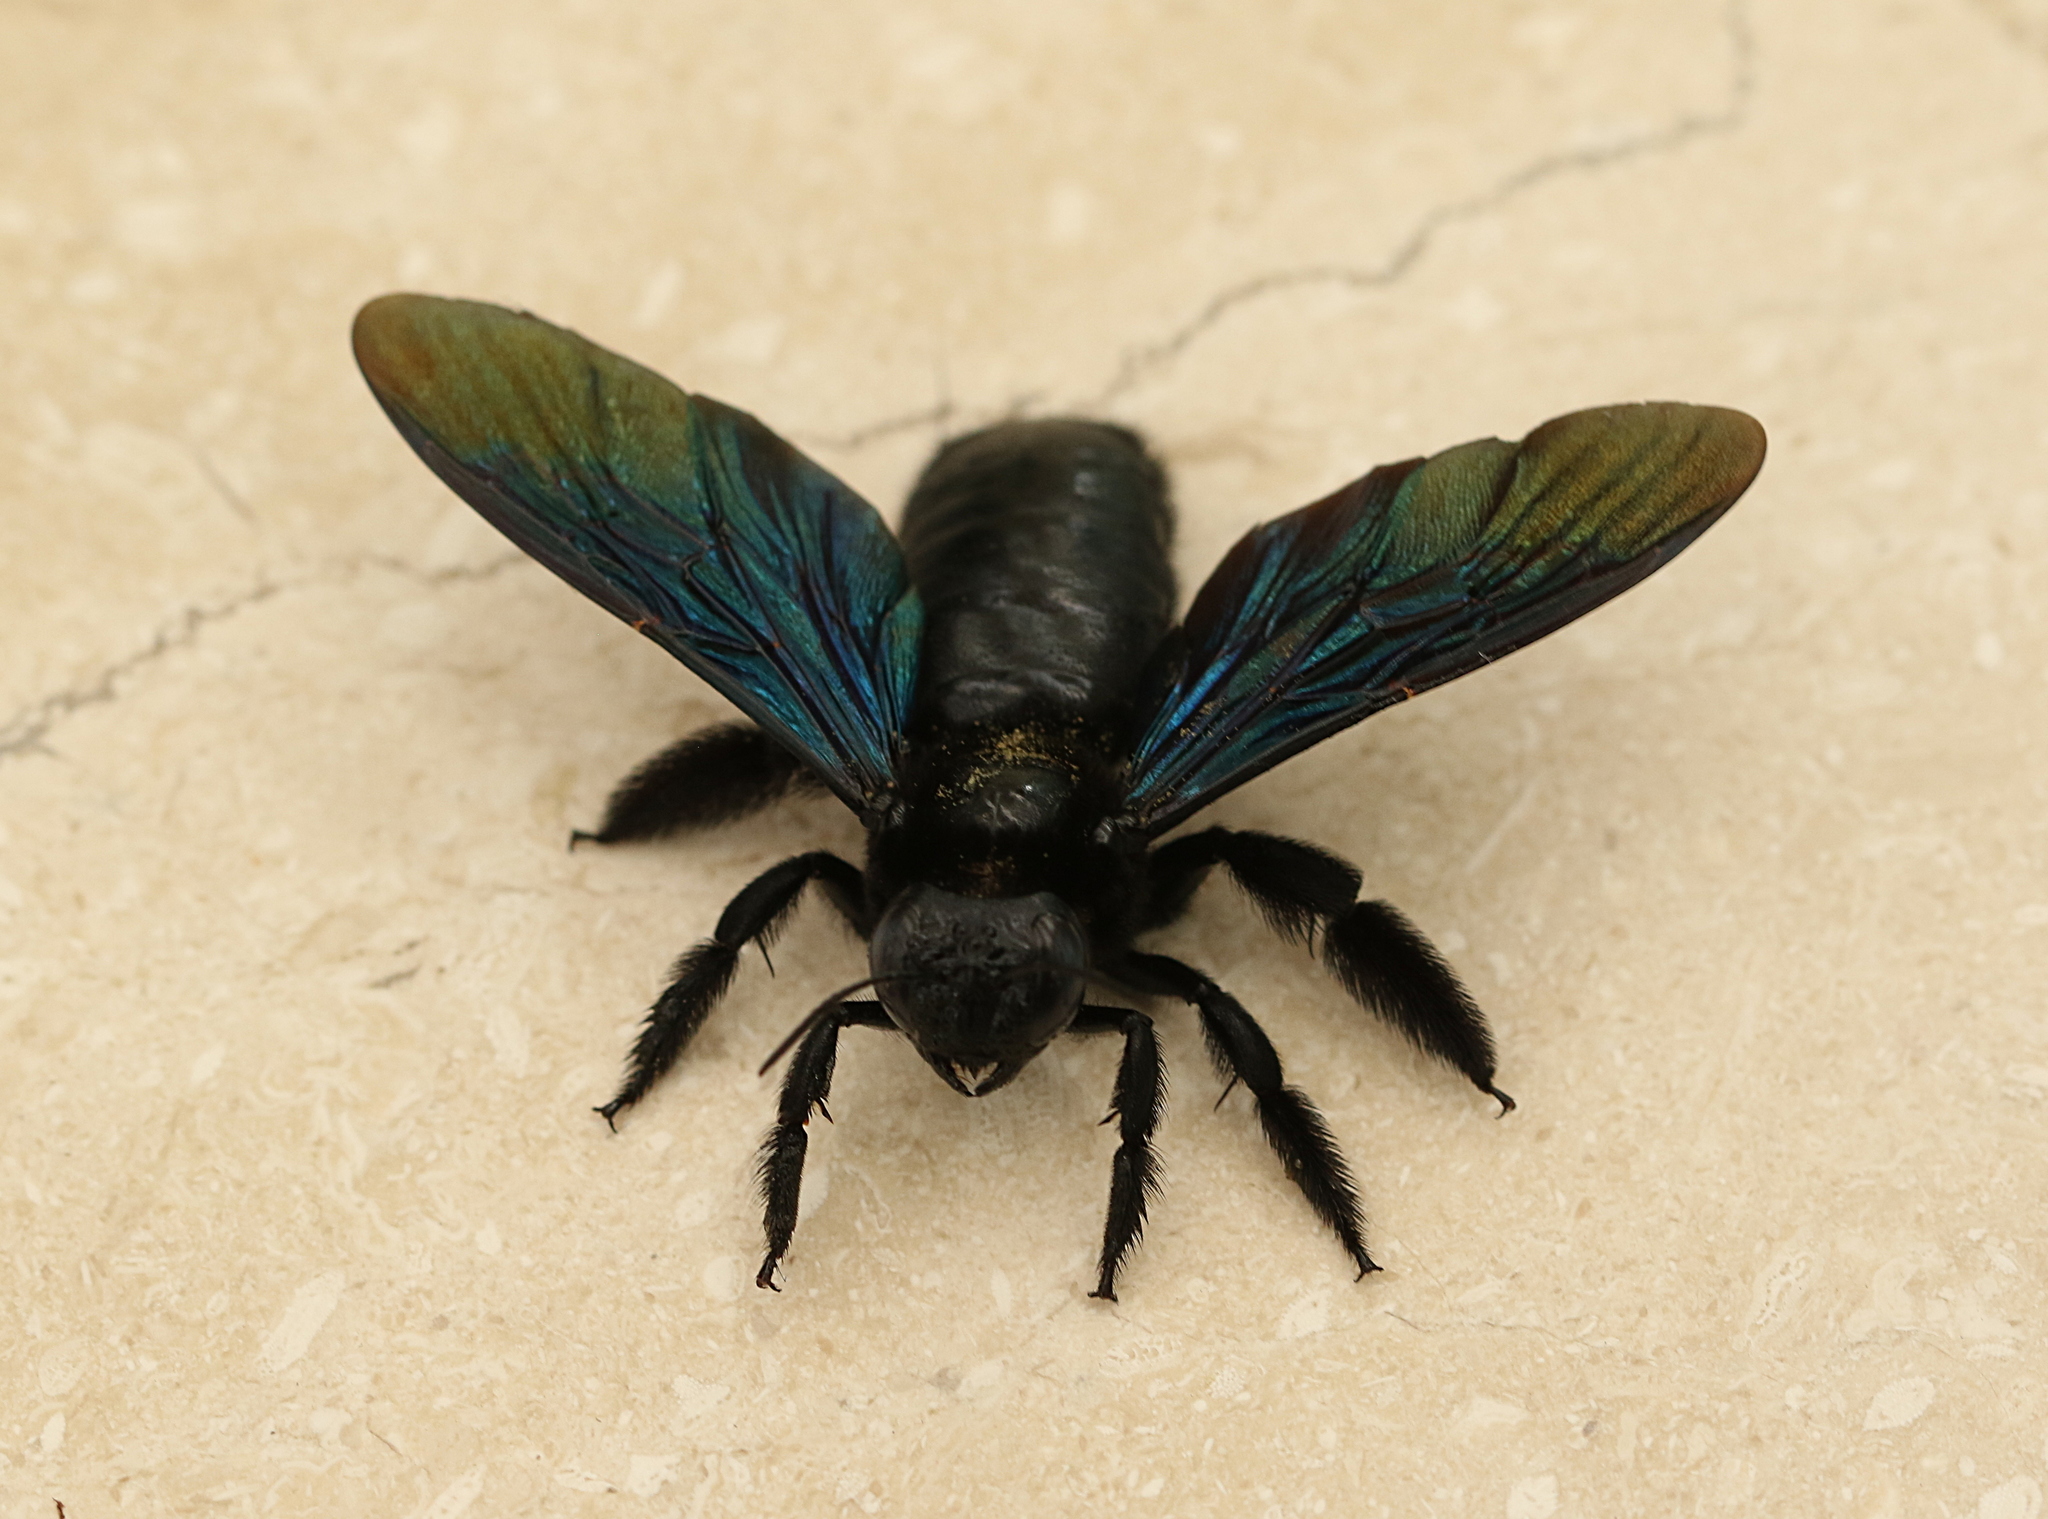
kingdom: Animalia
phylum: Arthropoda
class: Insecta
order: Hymenoptera
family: Apidae
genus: Xylocopa
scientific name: Xylocopa nasalis
